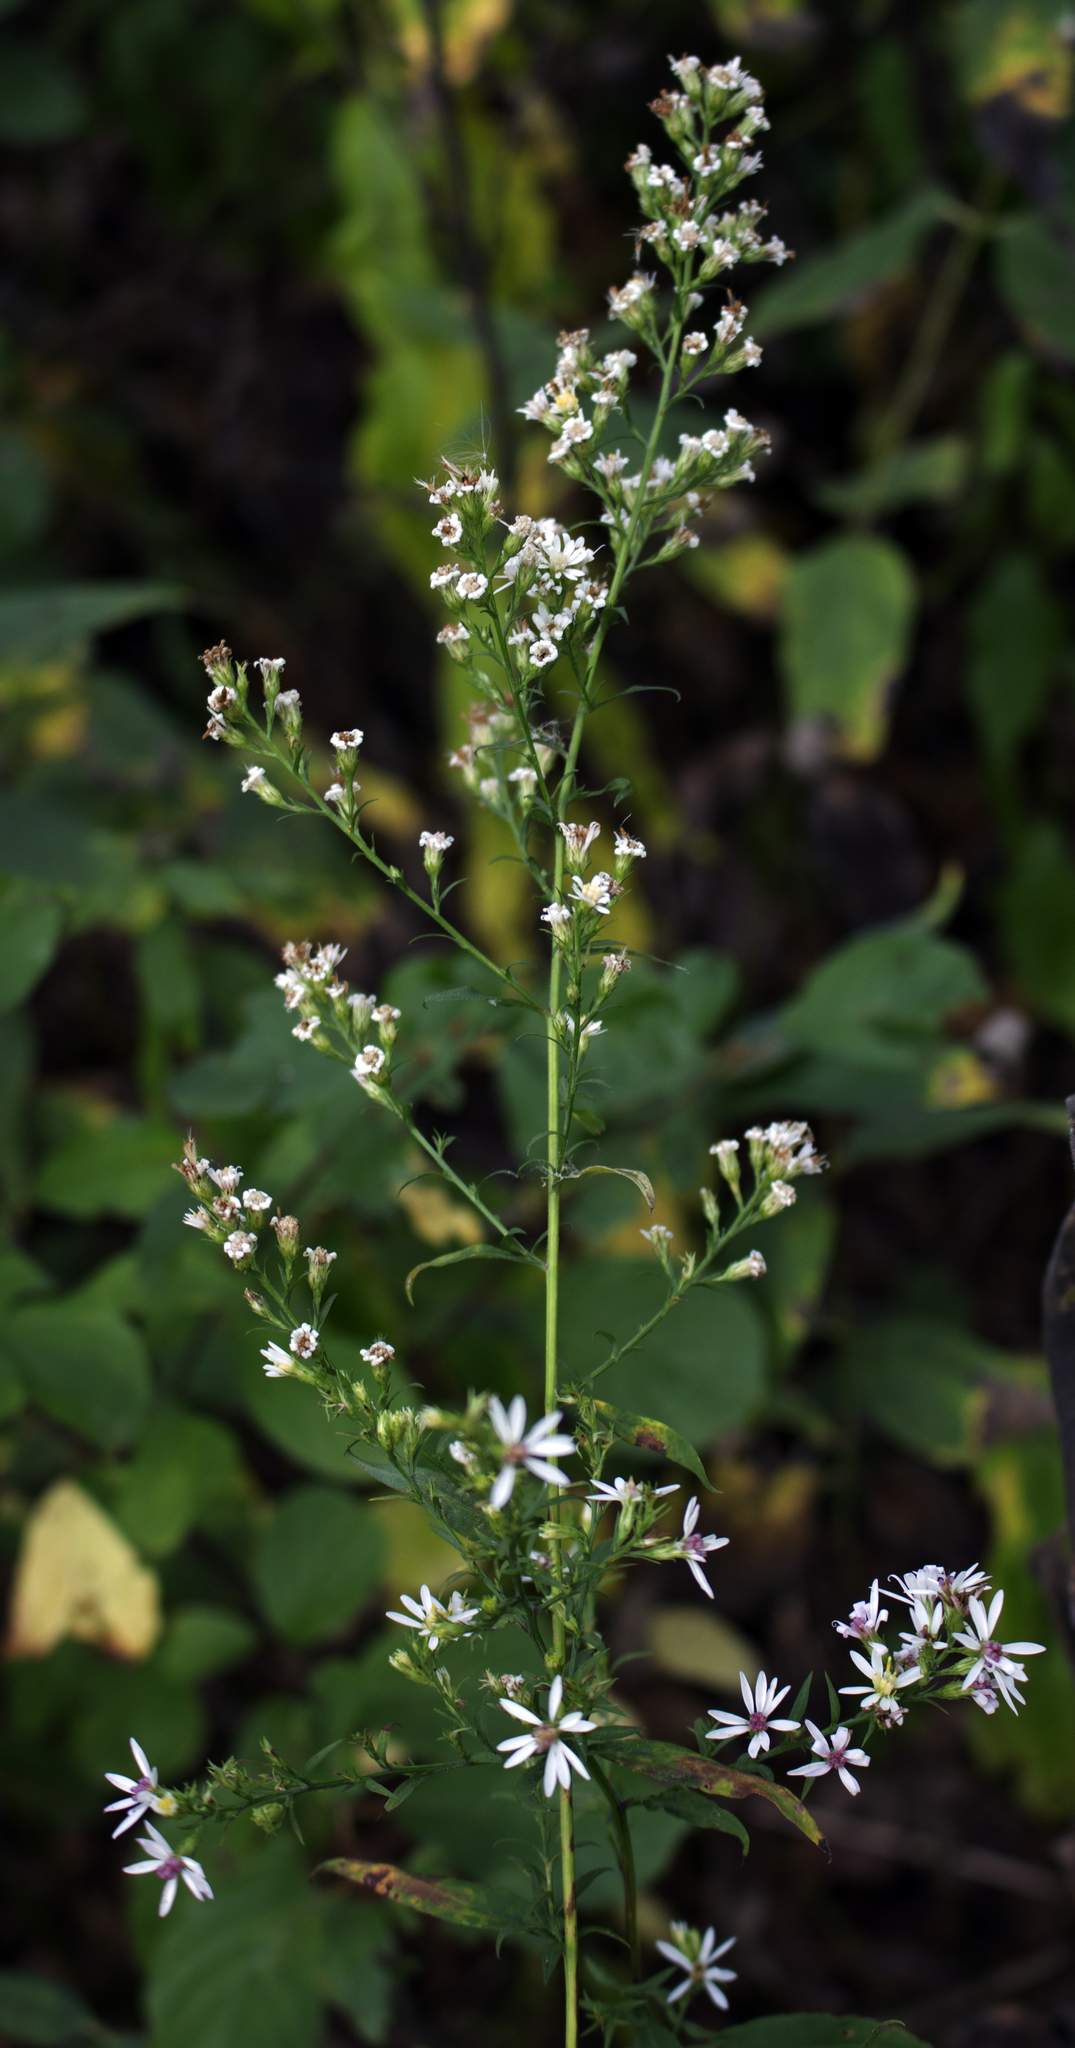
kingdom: Plantae
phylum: Tracheophyta
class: Magnoliopsida
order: Asterales
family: Asteraceae
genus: Symphyotrichum
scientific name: Symphyotrichum urophyllum
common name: Arrow-leaved aster
